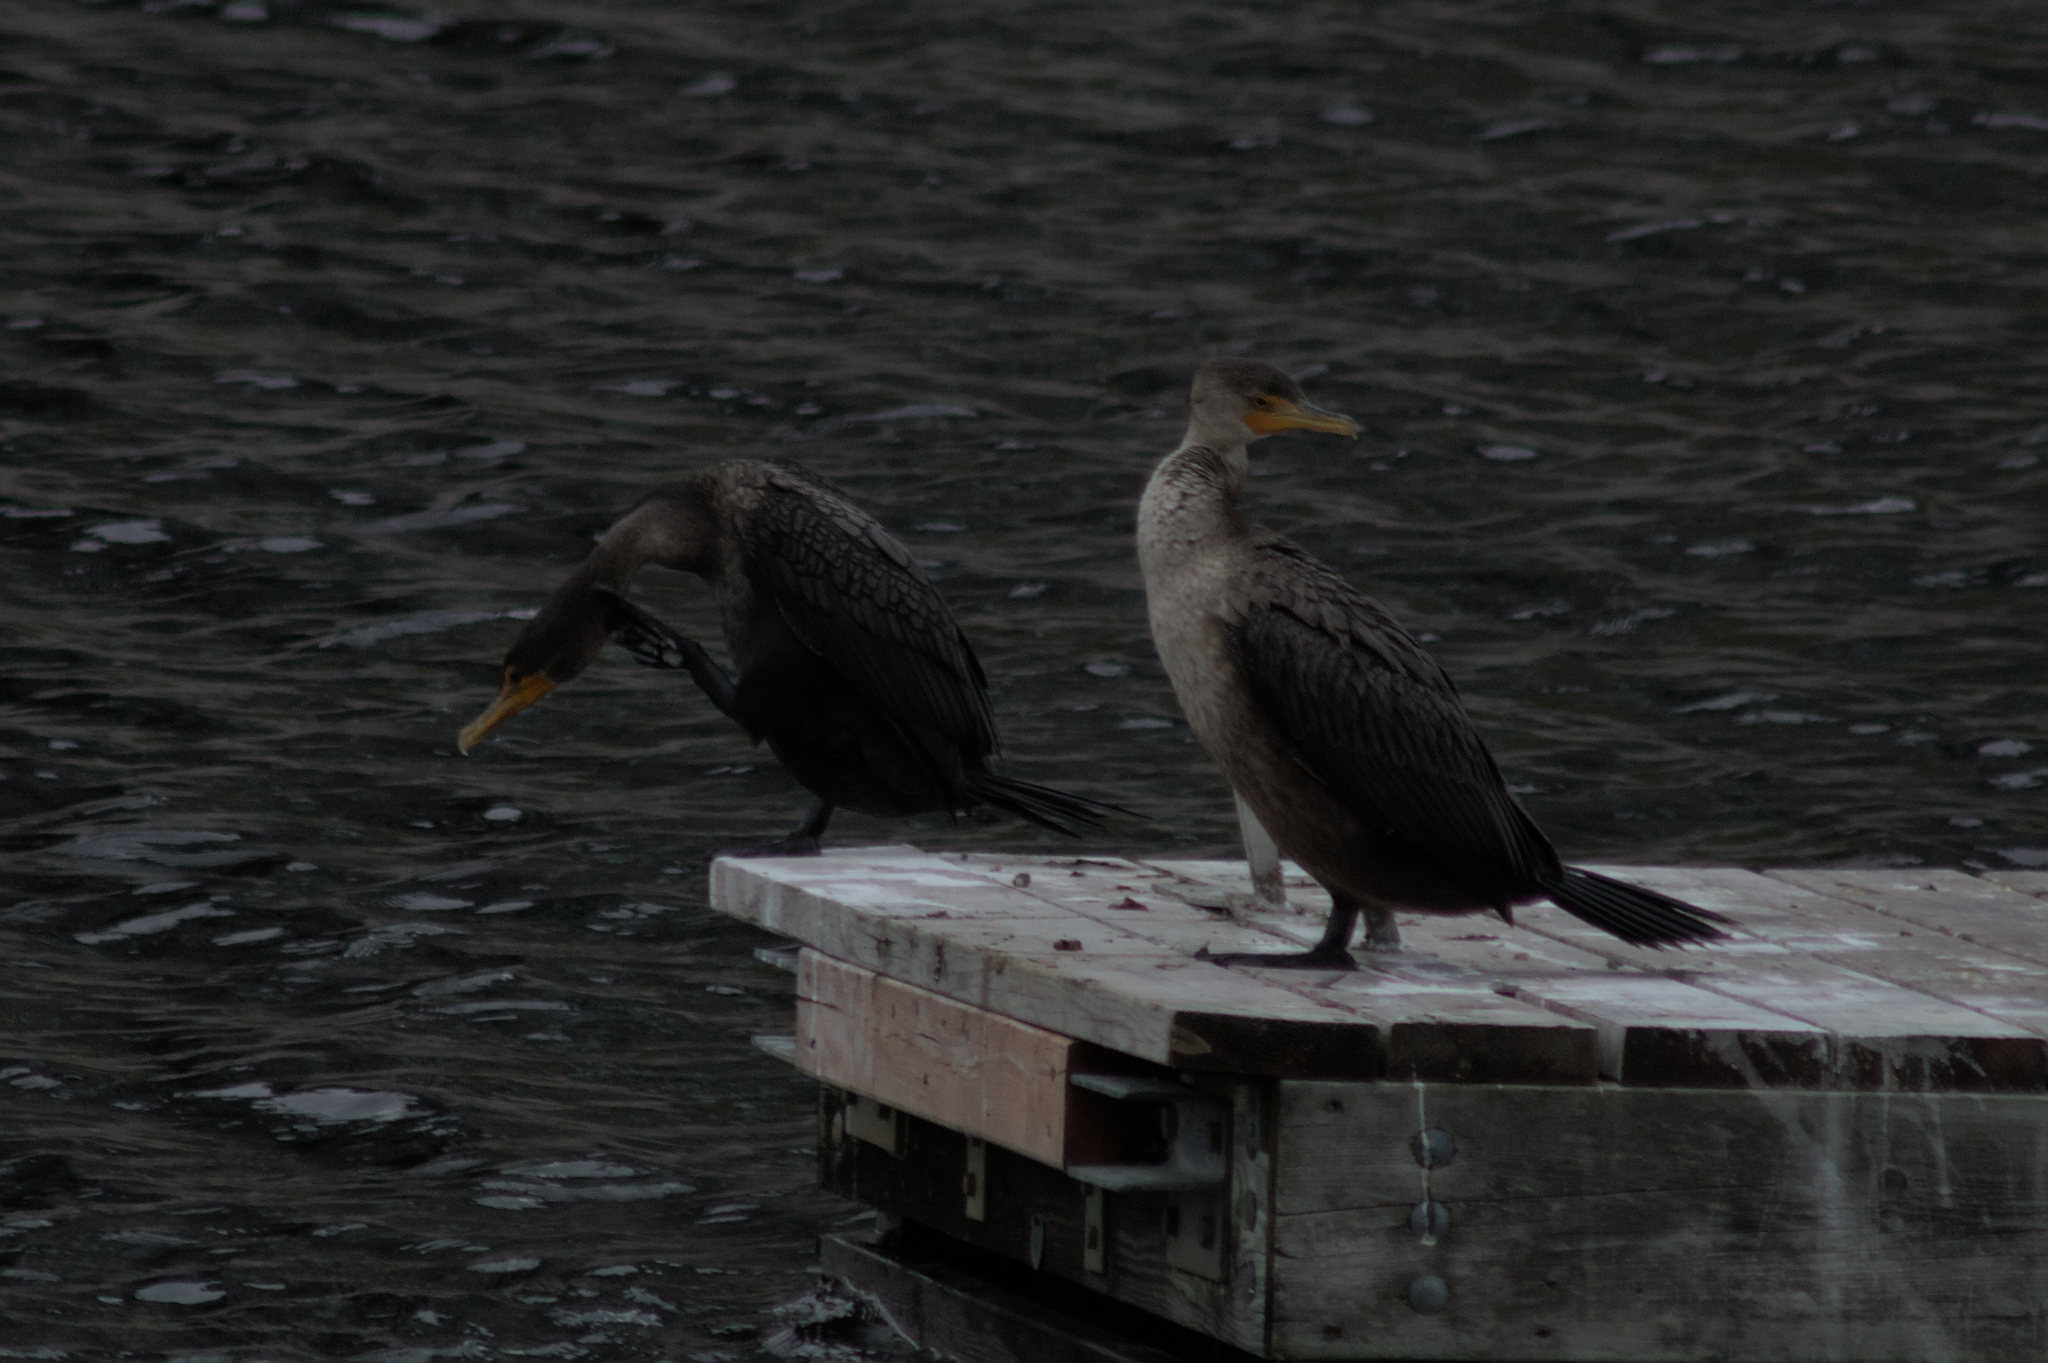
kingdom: Animalia
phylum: Chordata
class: Aves
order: Suliformes
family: Phalacrocoracidae
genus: Phalacrocorax
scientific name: Phalacrocorax auritus
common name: Double-crested cormorant
